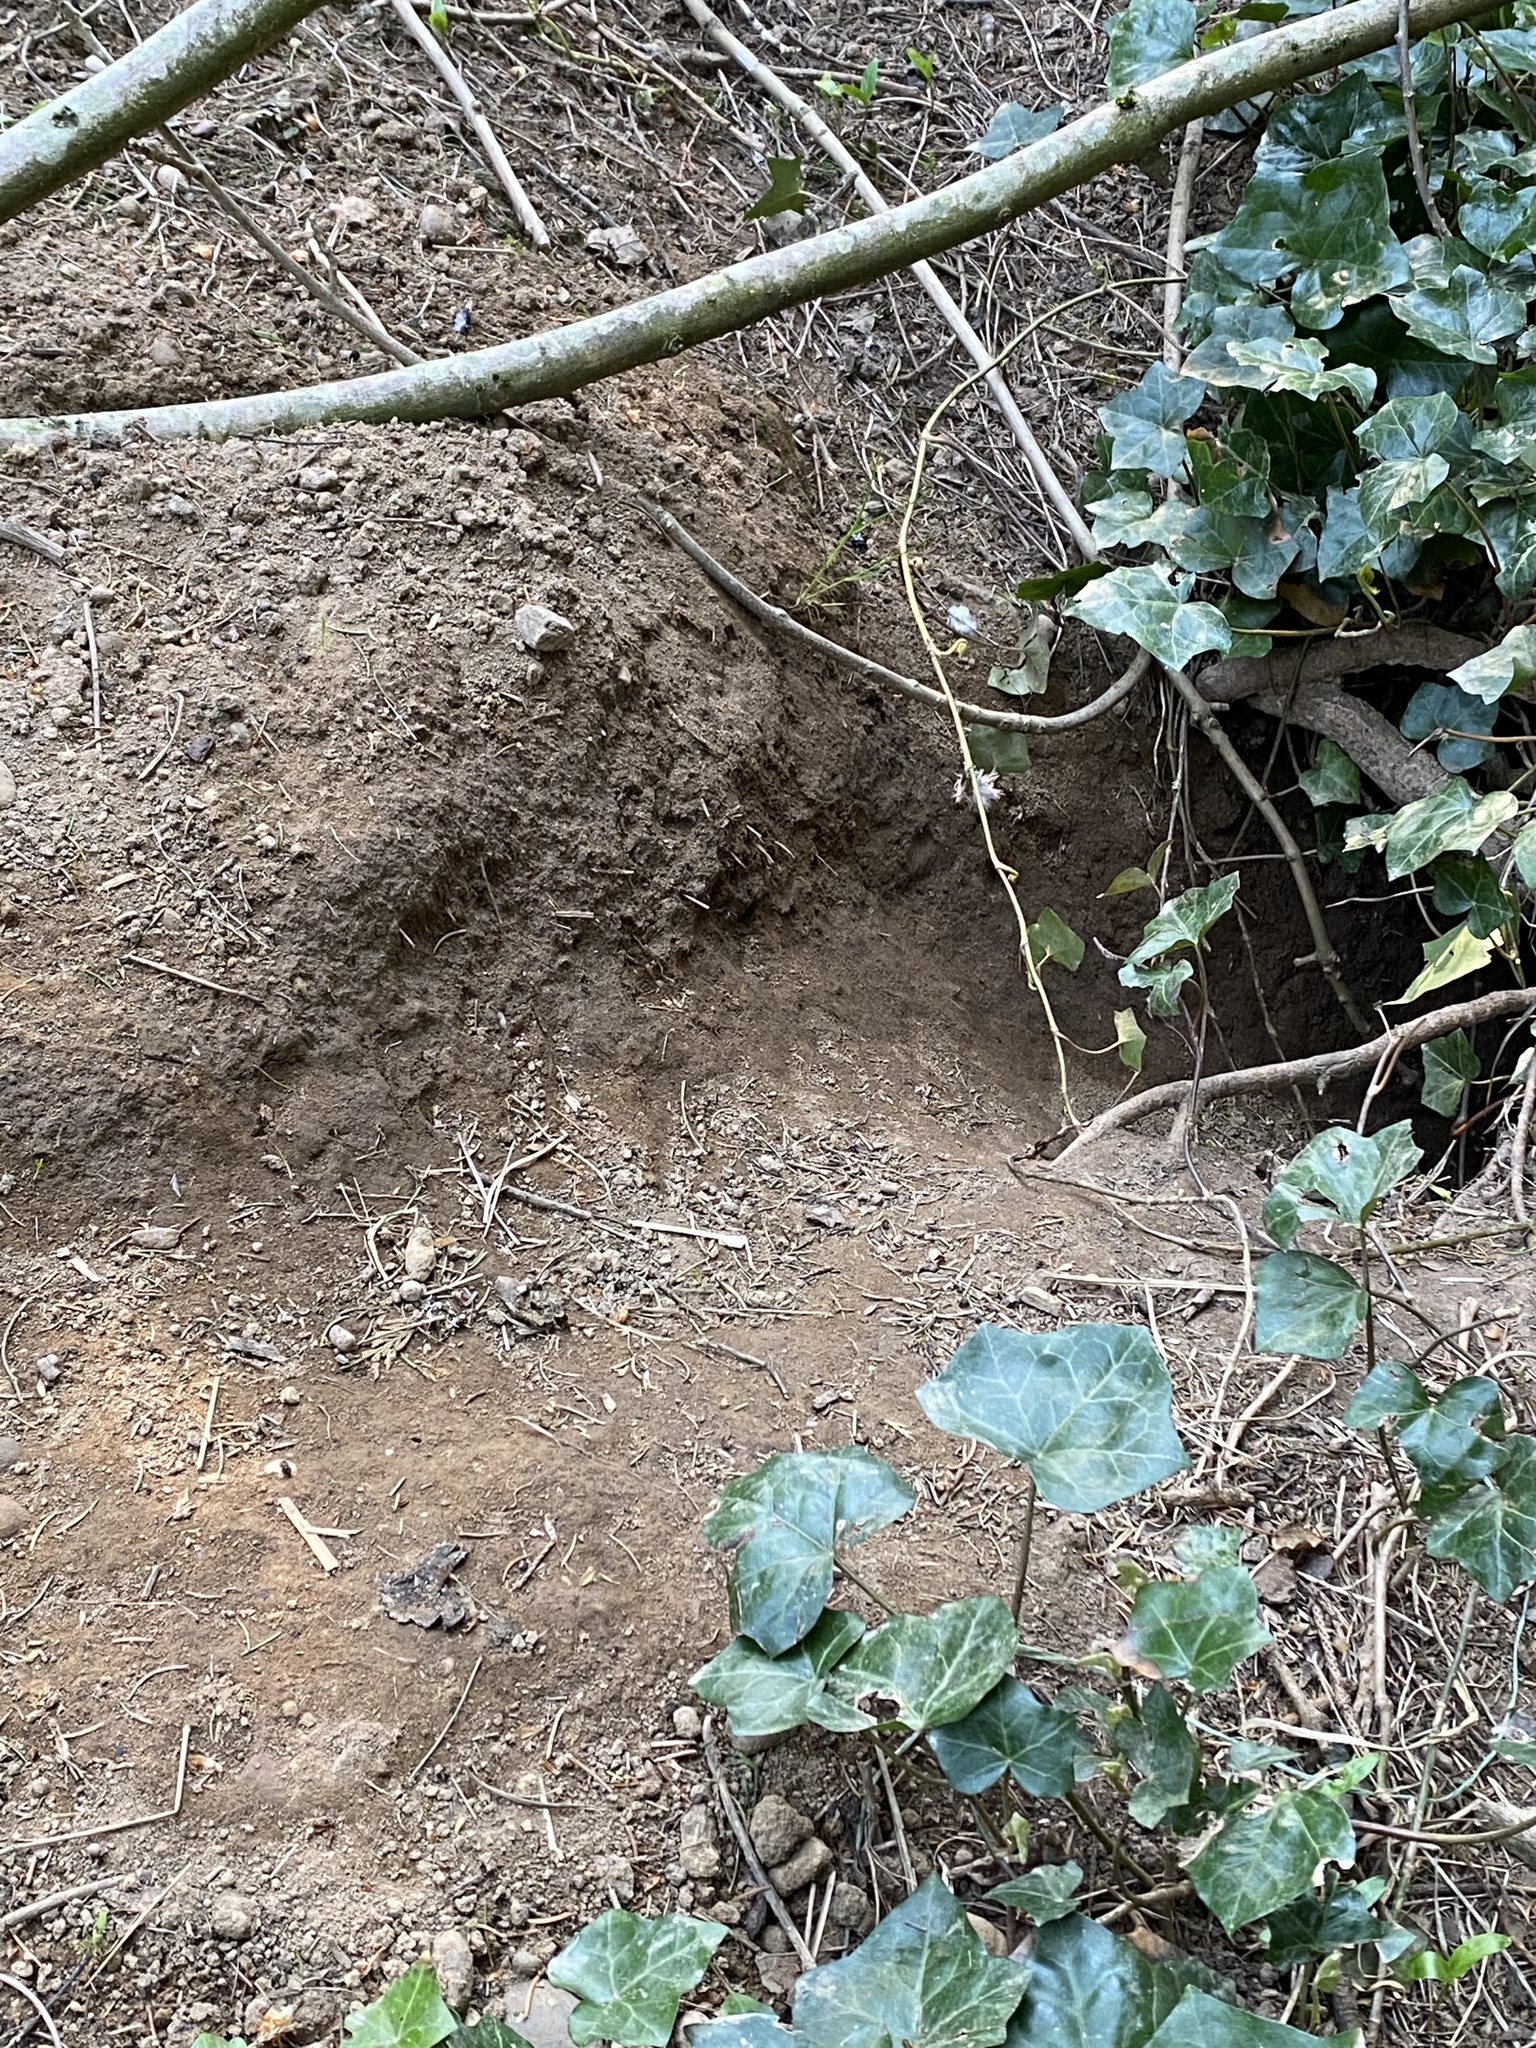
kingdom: Animalia
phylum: Chordata
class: Mammalia
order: Carnivora
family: Mustelidae
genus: Meles
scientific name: Meles meles
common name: Eurasian badger
